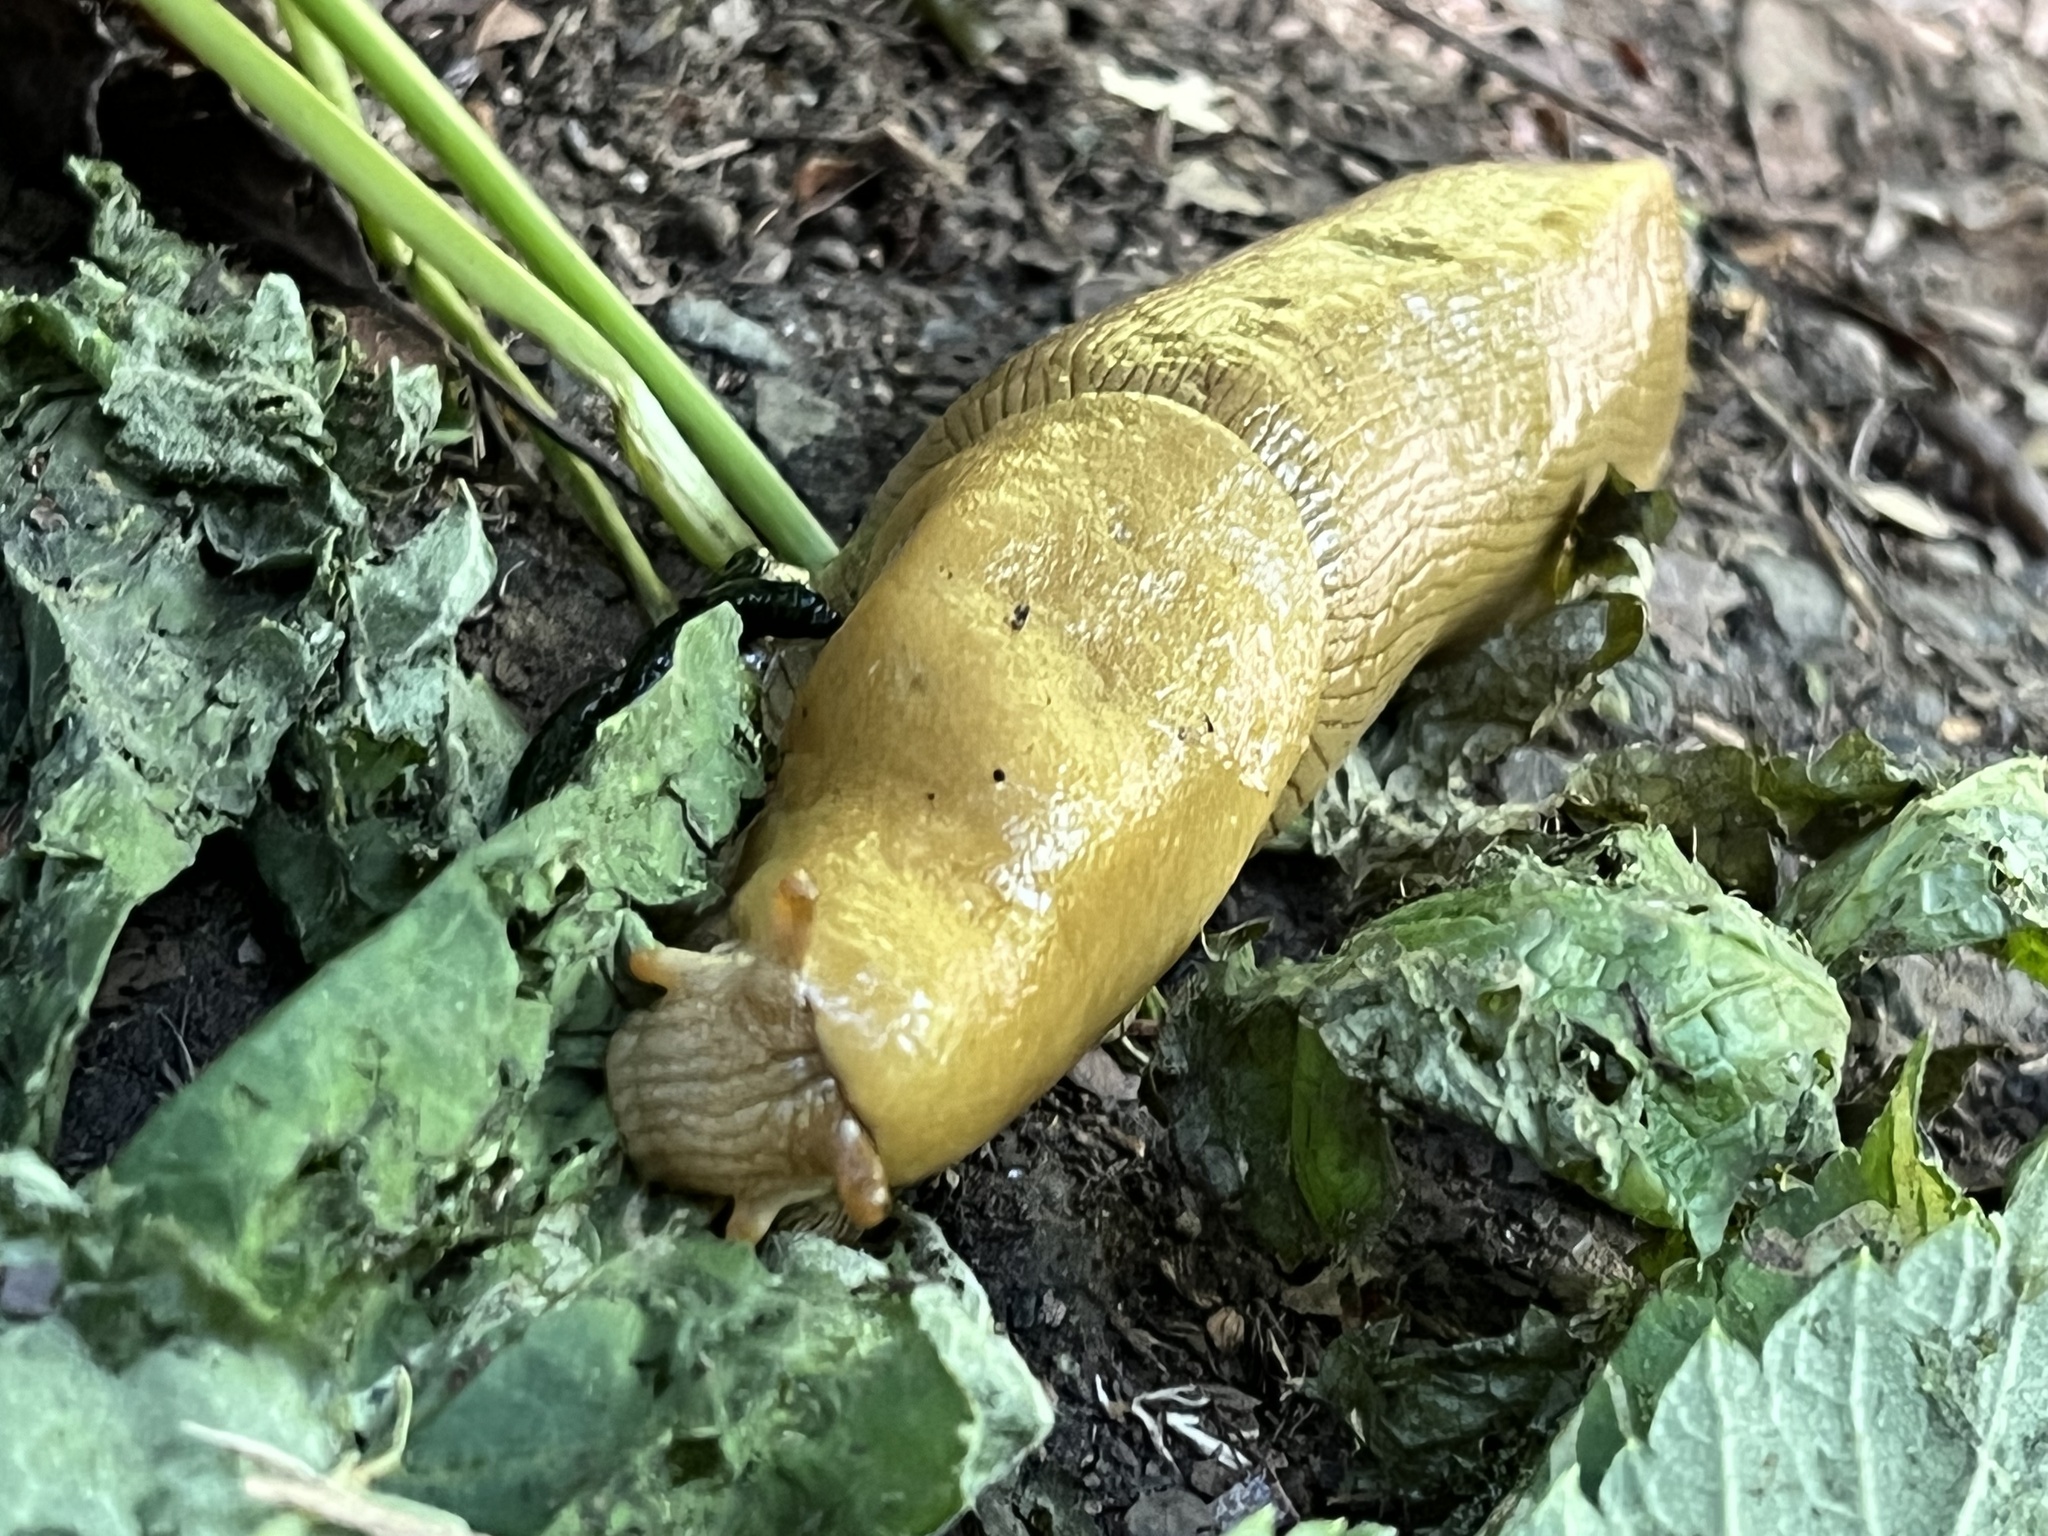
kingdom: Animalia
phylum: Mollusca
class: Gastropoda
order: Stylommatophora
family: Ariolimacidae
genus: Ariolimax
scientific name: Ariolimax buttoni
